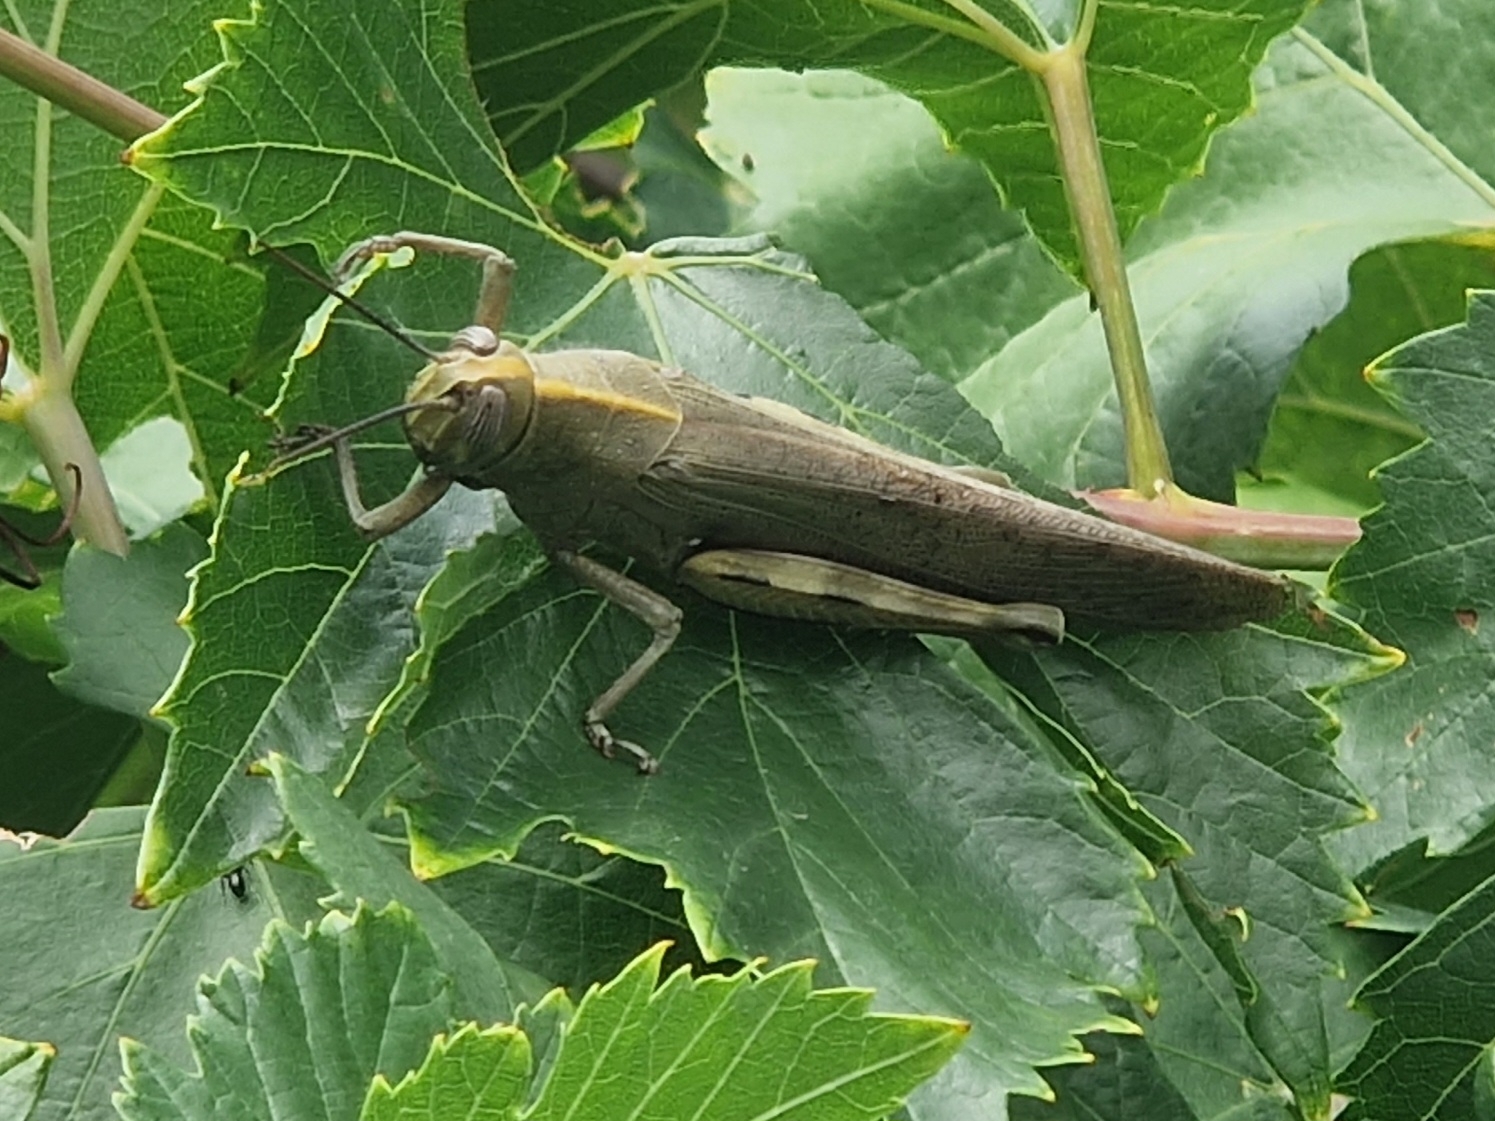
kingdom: Animalia
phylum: Arthropoda
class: Insecta
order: Orthoptera
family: Acrididae
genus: Anacridium
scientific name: Anacridium aegyptium
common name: Egyptian grasshopper
